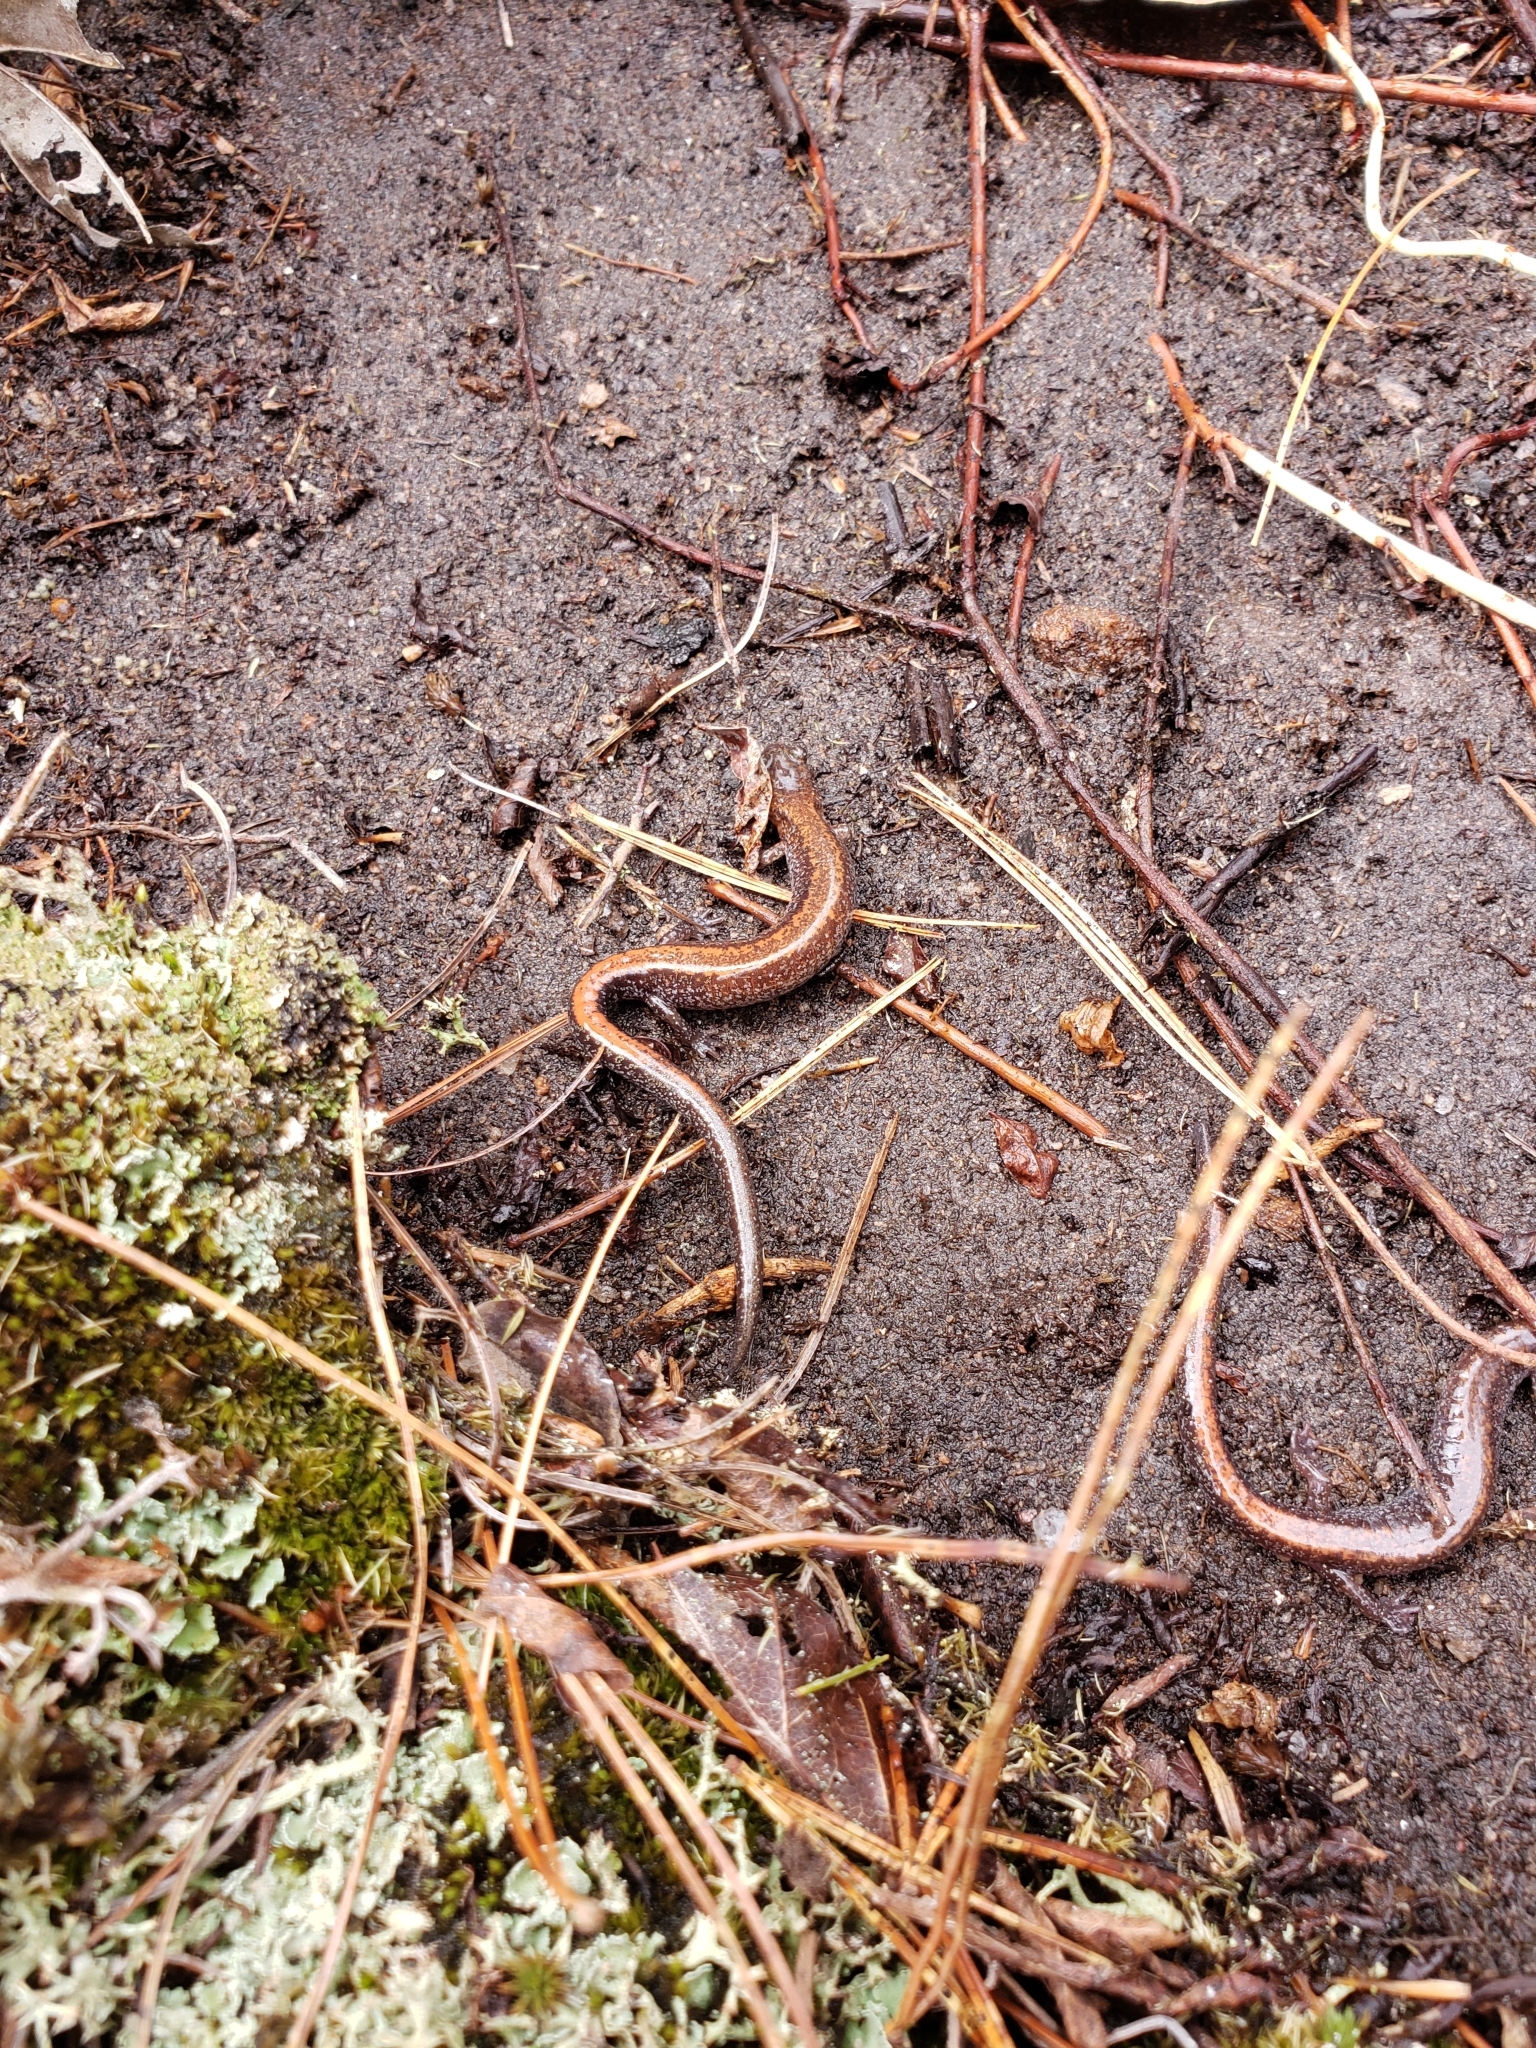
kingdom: Animalia
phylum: Chordata
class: Amphibia
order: Caudata
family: Plethodontidae
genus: Plethodon
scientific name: Plethodon cinereus
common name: Redback salamander
